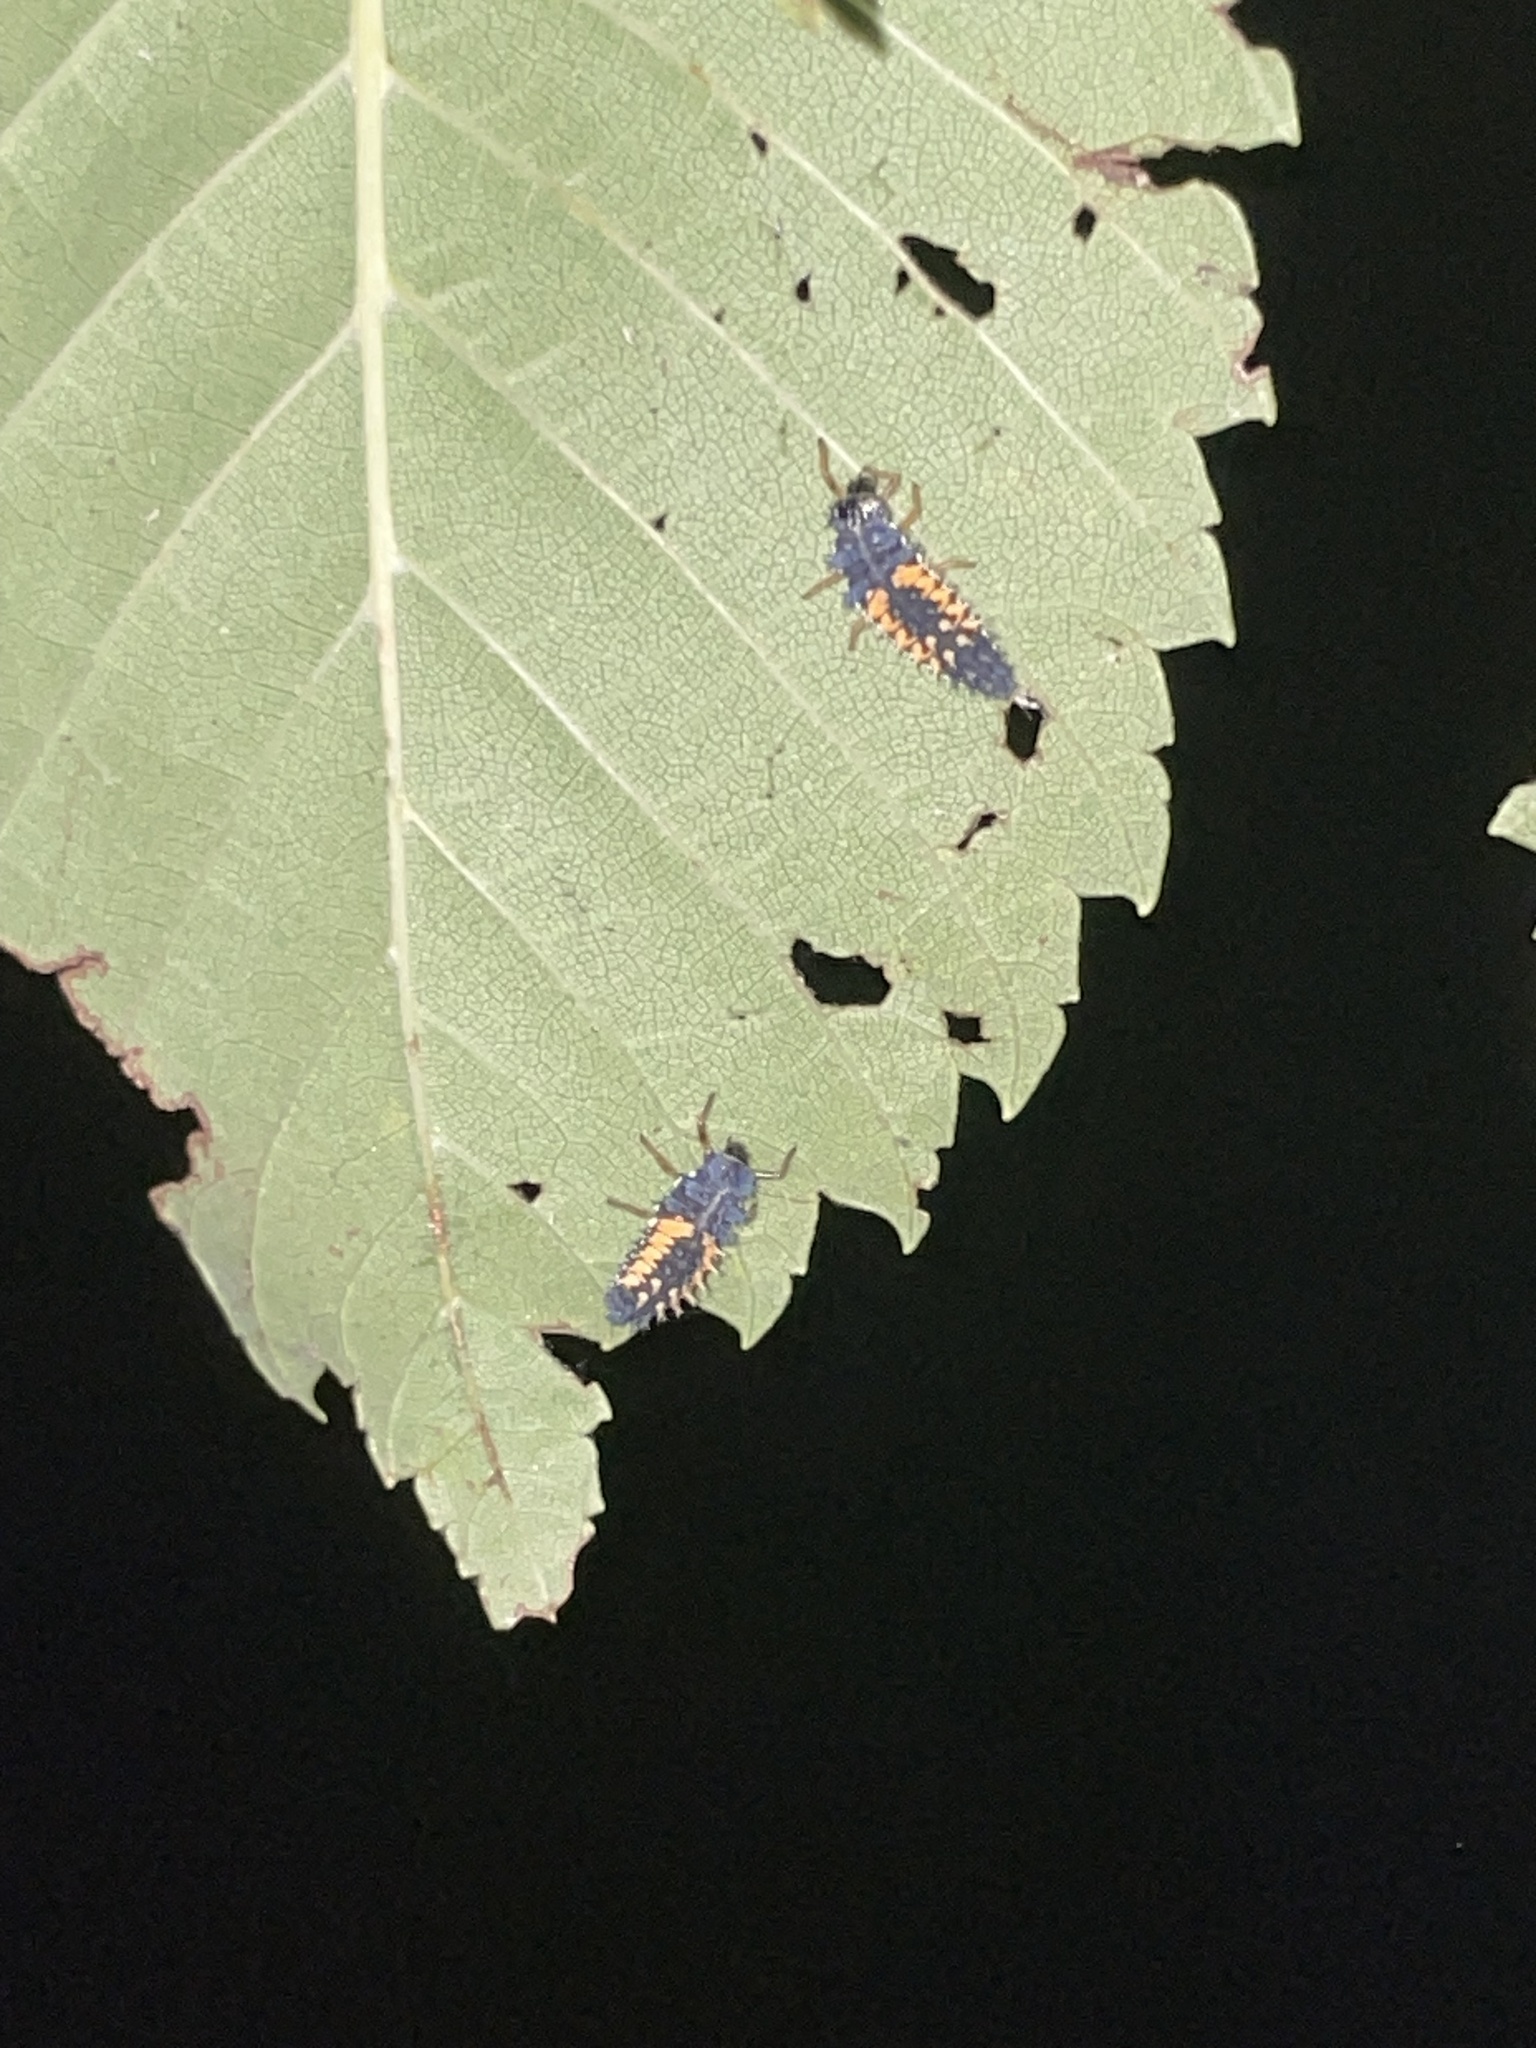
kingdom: Animalia
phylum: Arthropoda
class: Insecta
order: Coleoptera
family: Coccinellidae
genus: Harmonia
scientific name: Harmonia axyridis
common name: Harlequin ladybird
